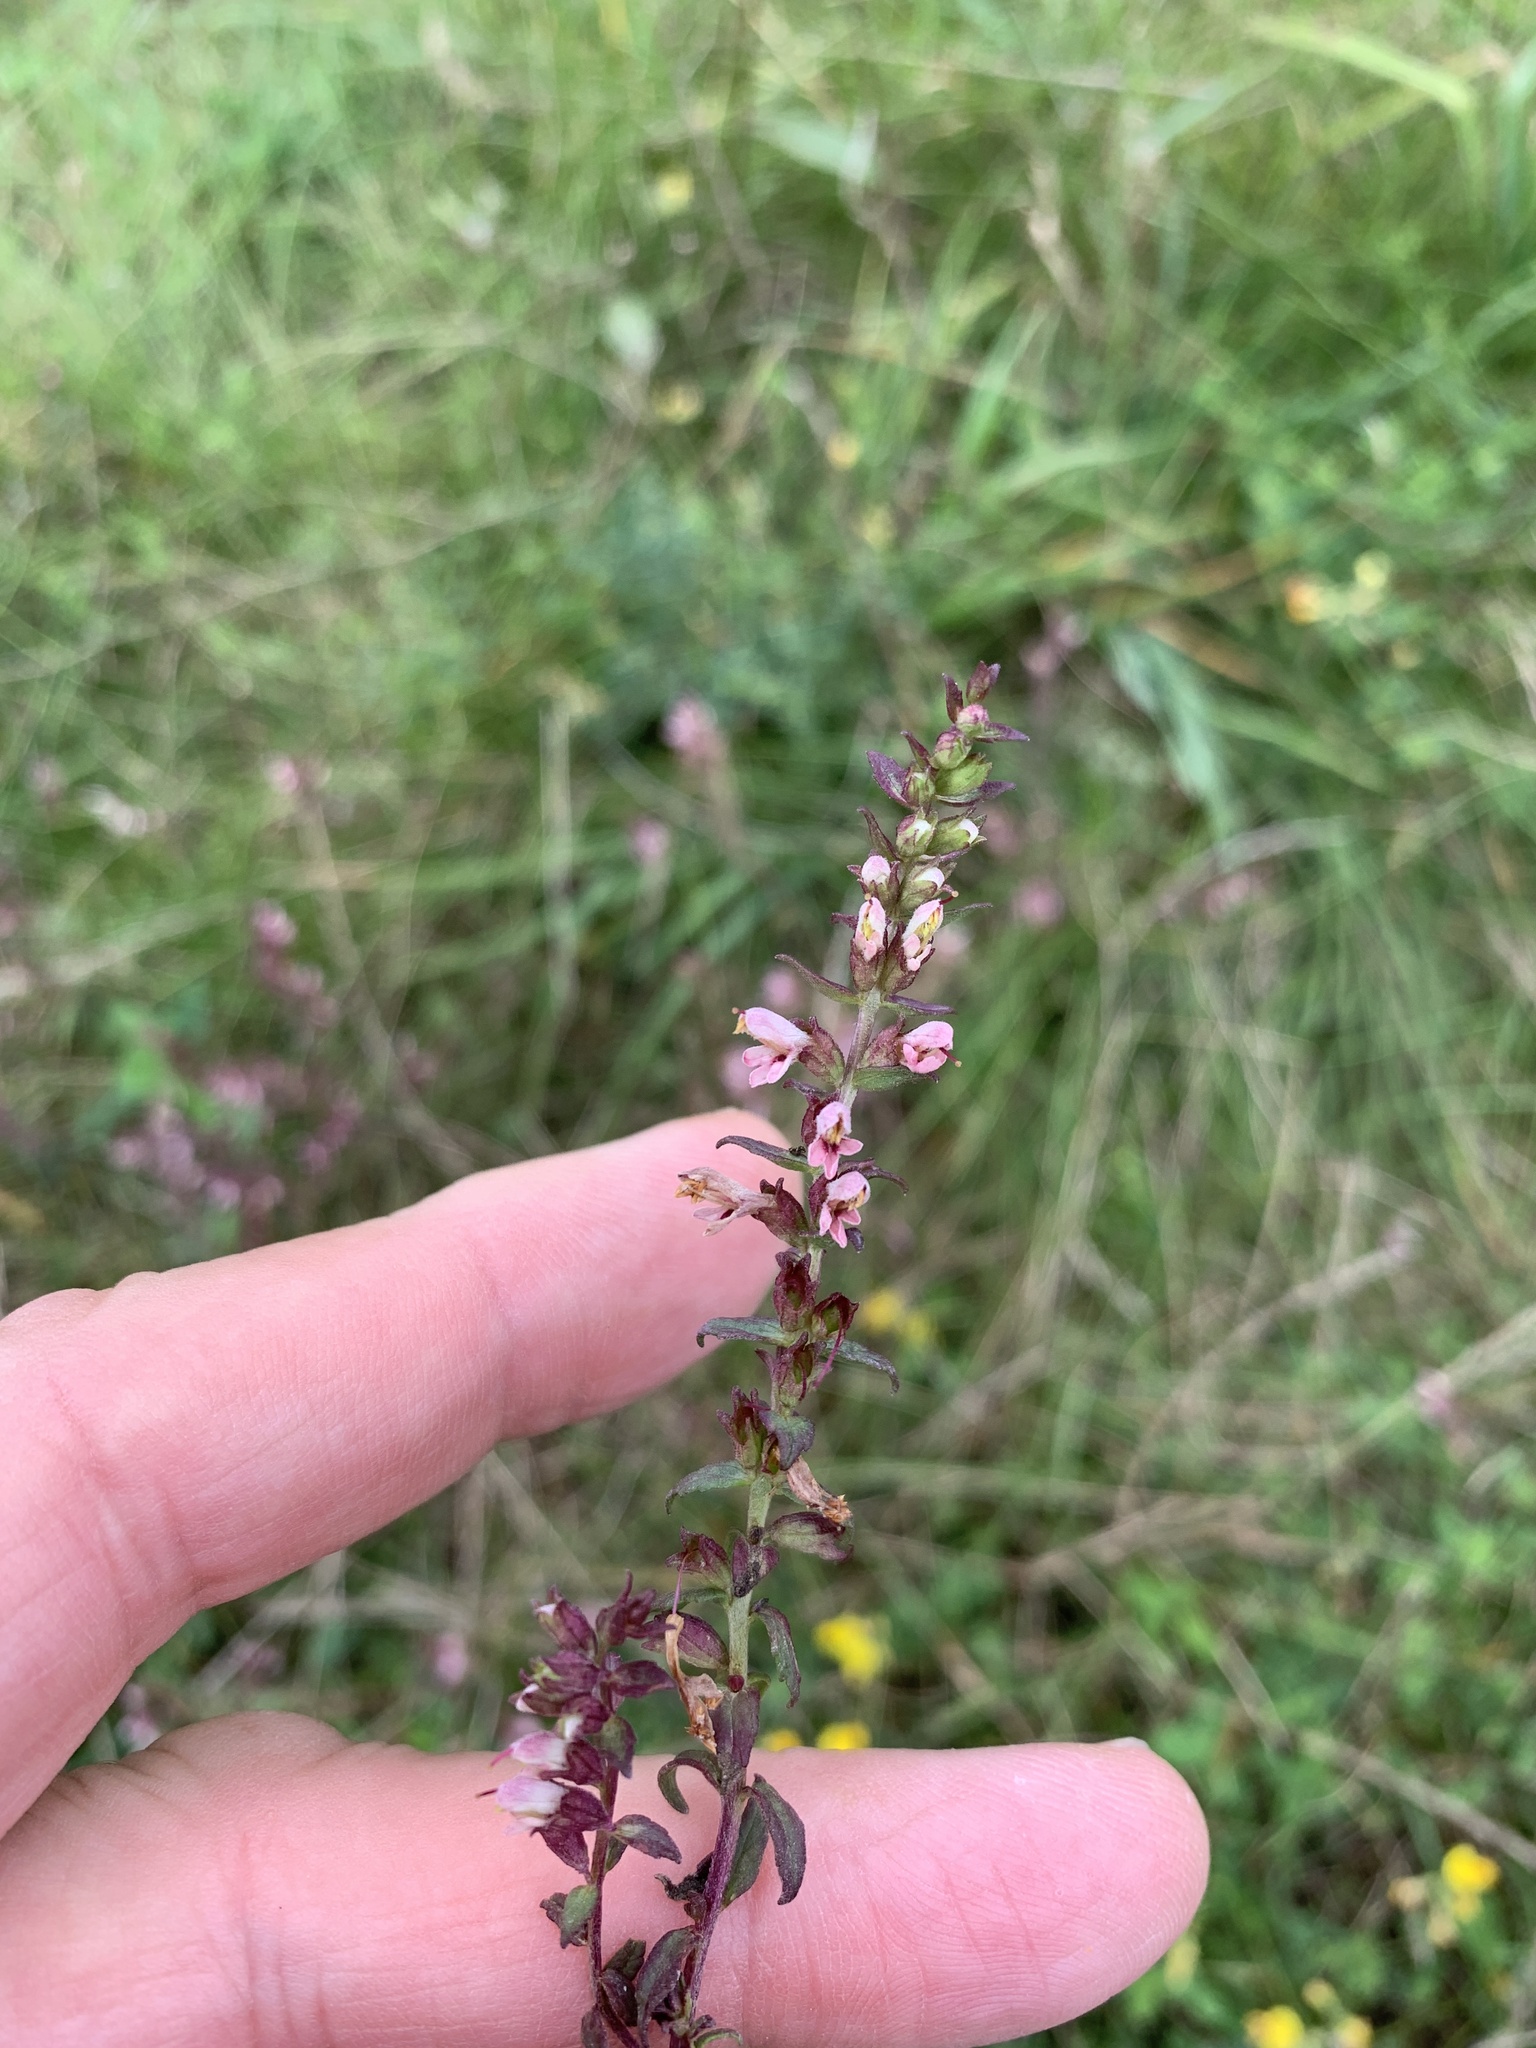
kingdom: Plantae
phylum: Tracheophyta
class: Magnoliopsida
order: Lamiales
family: Orobanchaceae
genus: Odontites
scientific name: Odontites vulgaris
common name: Broomrape
